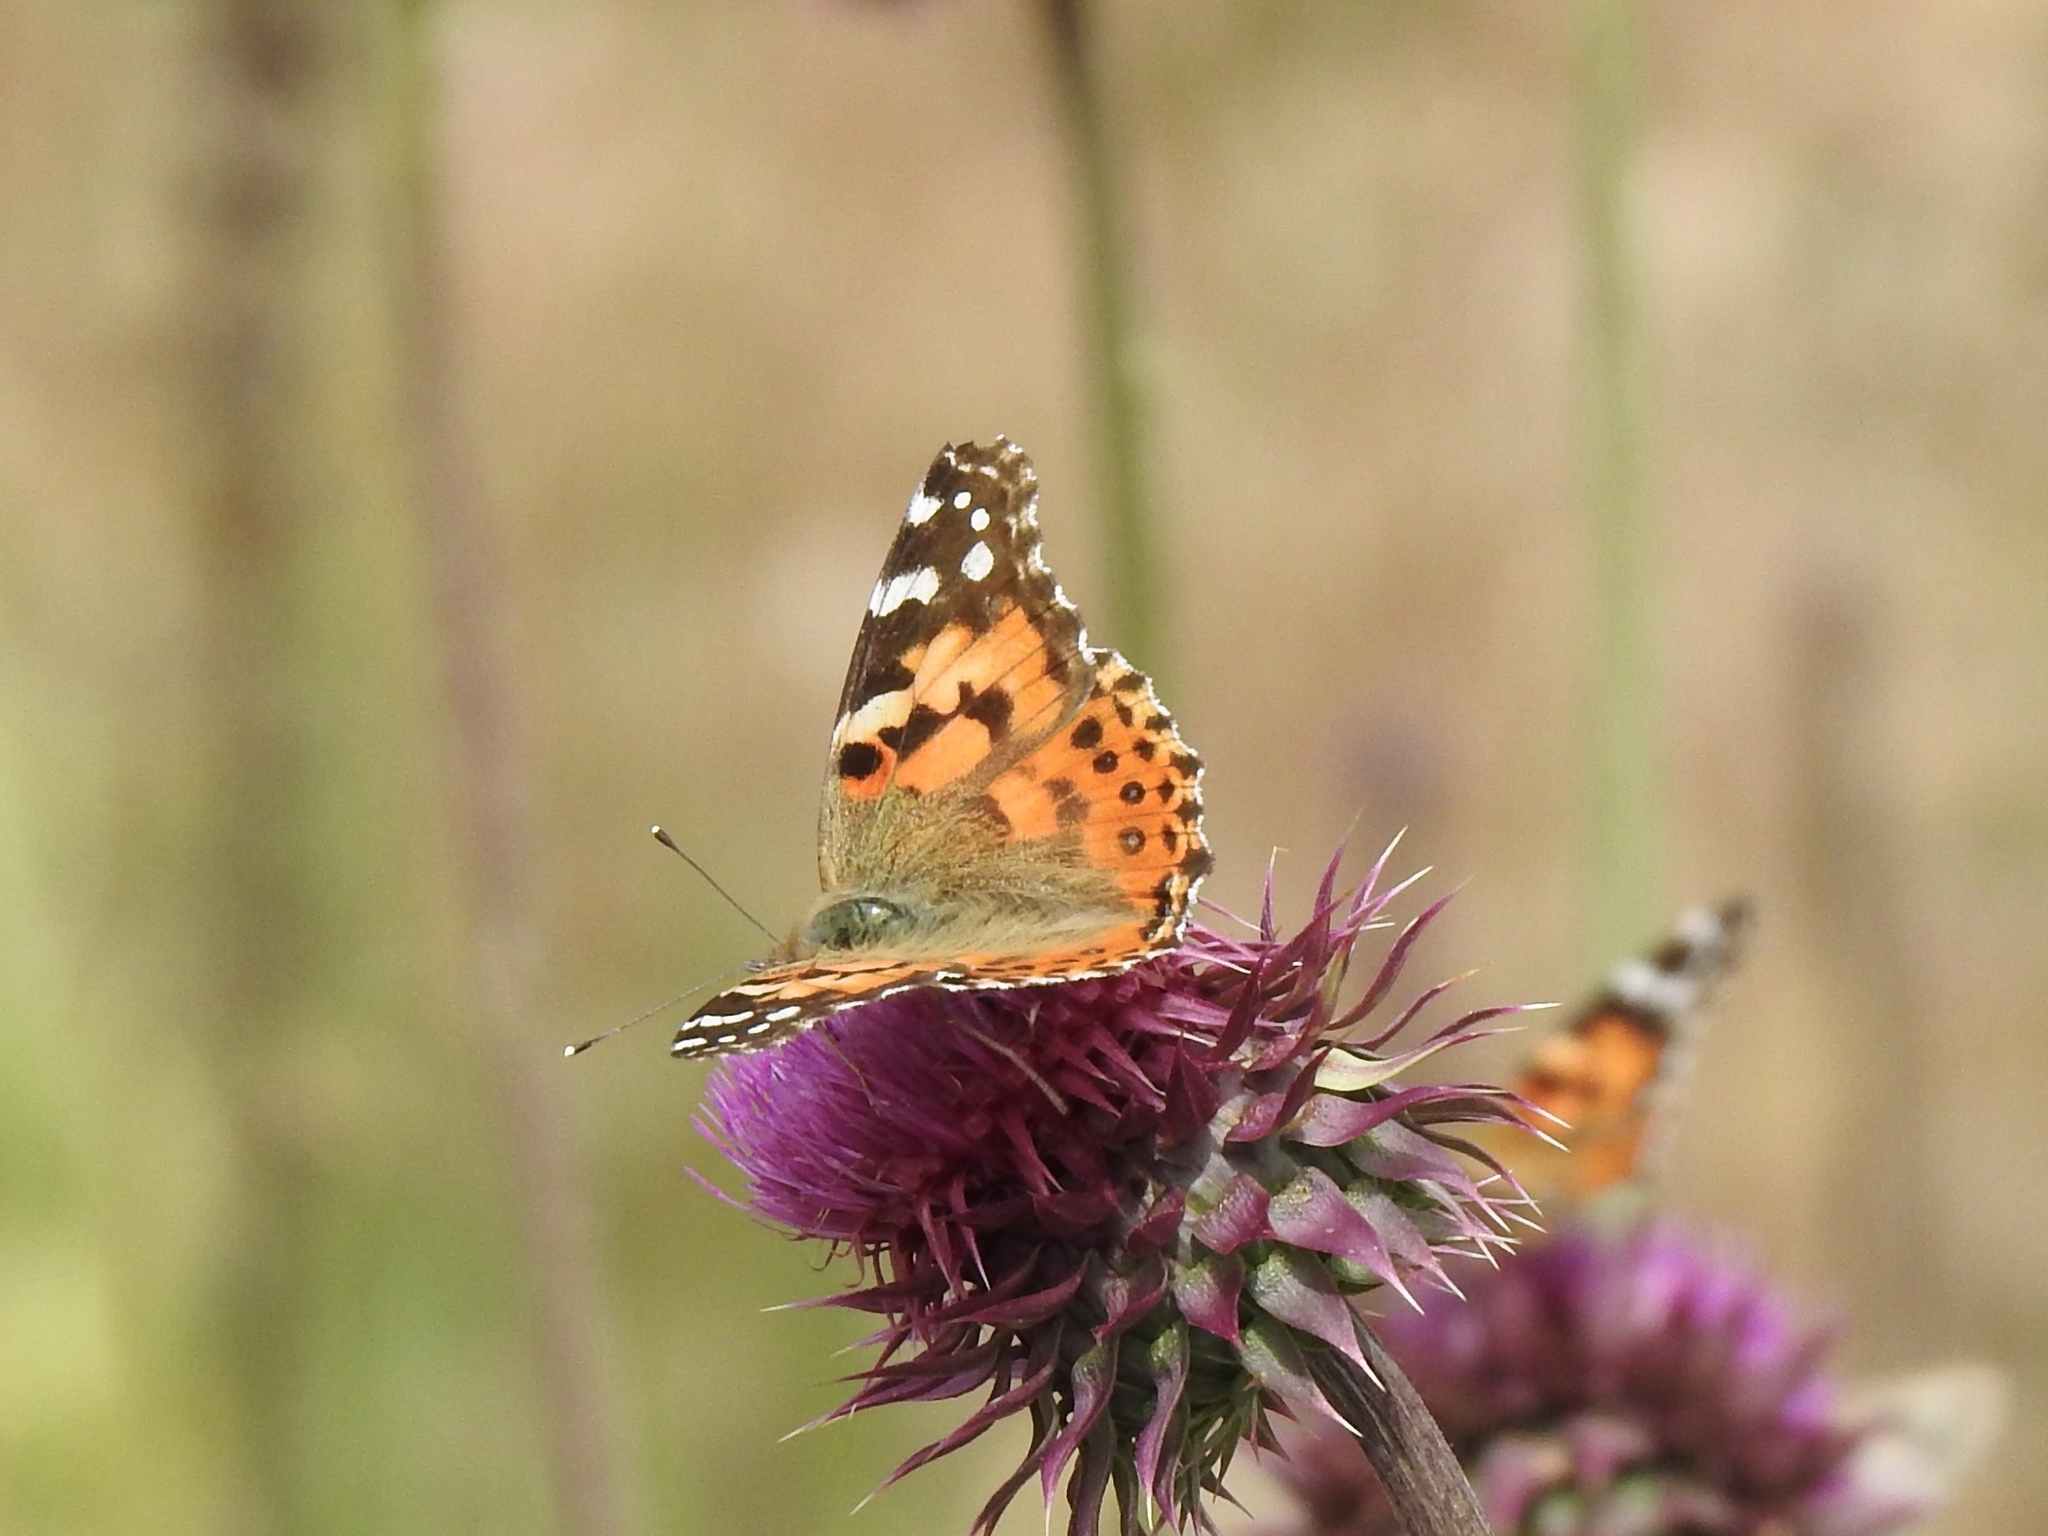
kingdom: Animalia
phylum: Arthropoda
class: Insecta
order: Lepidoptera
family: Nymphalidae
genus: Vanessa
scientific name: Vanessa cardui
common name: Painted lady
